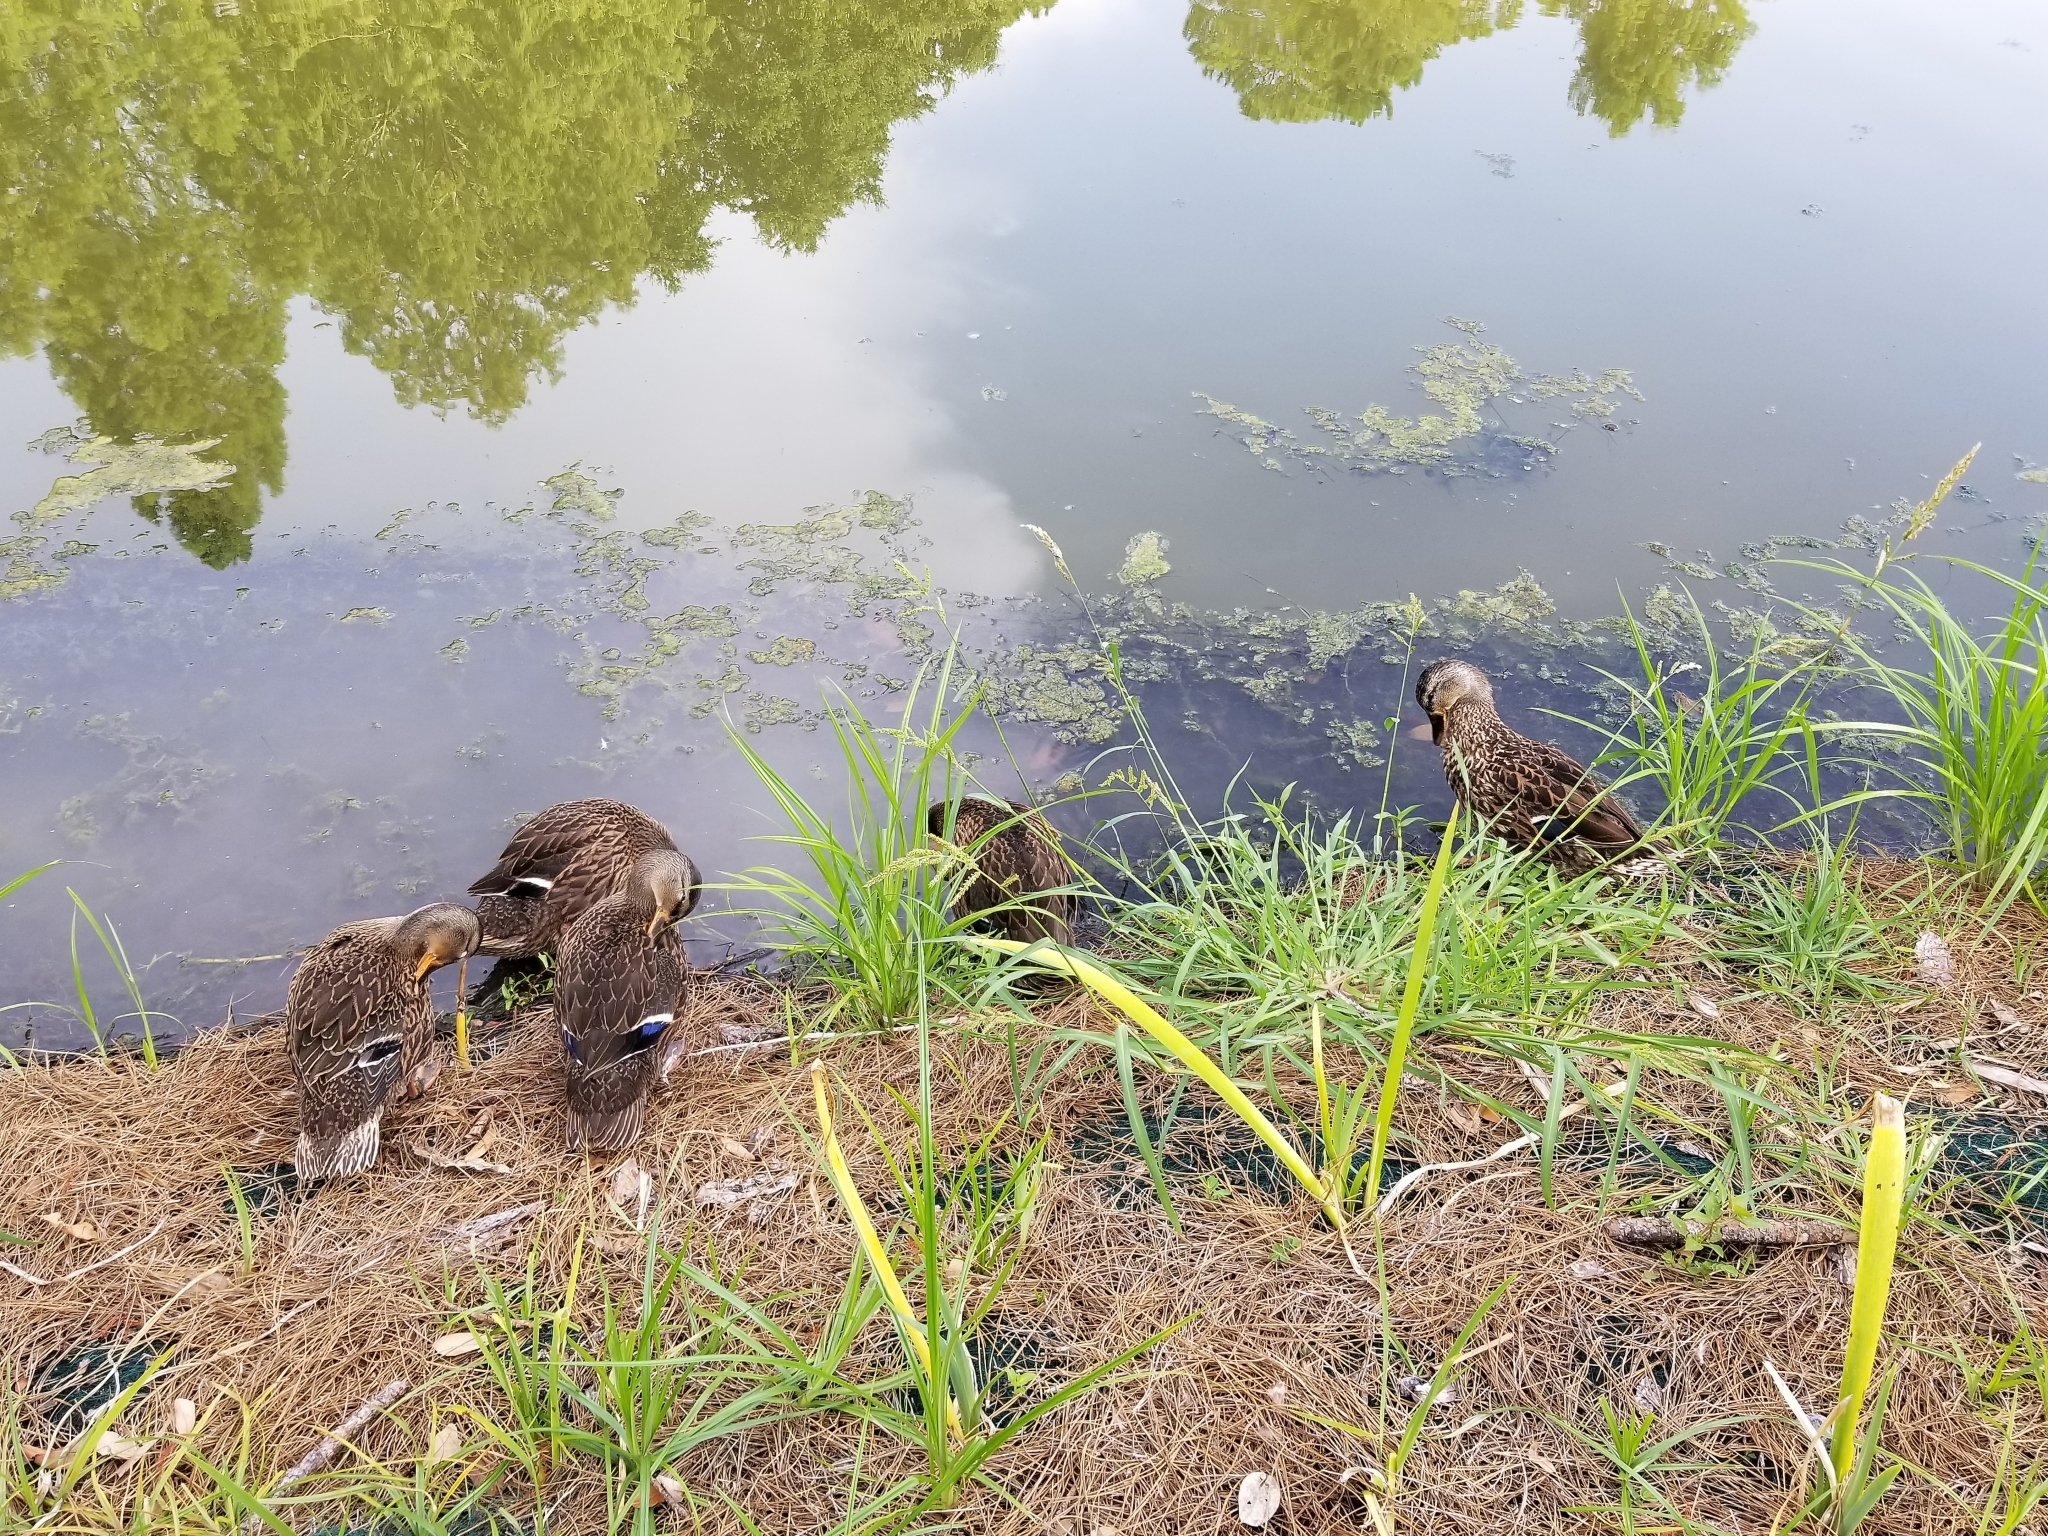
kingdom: Animalia
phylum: Chordata
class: Aves
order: Anseriformes
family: Anatidae
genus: Anas
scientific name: Anas platyrhynchos
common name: Mallard
